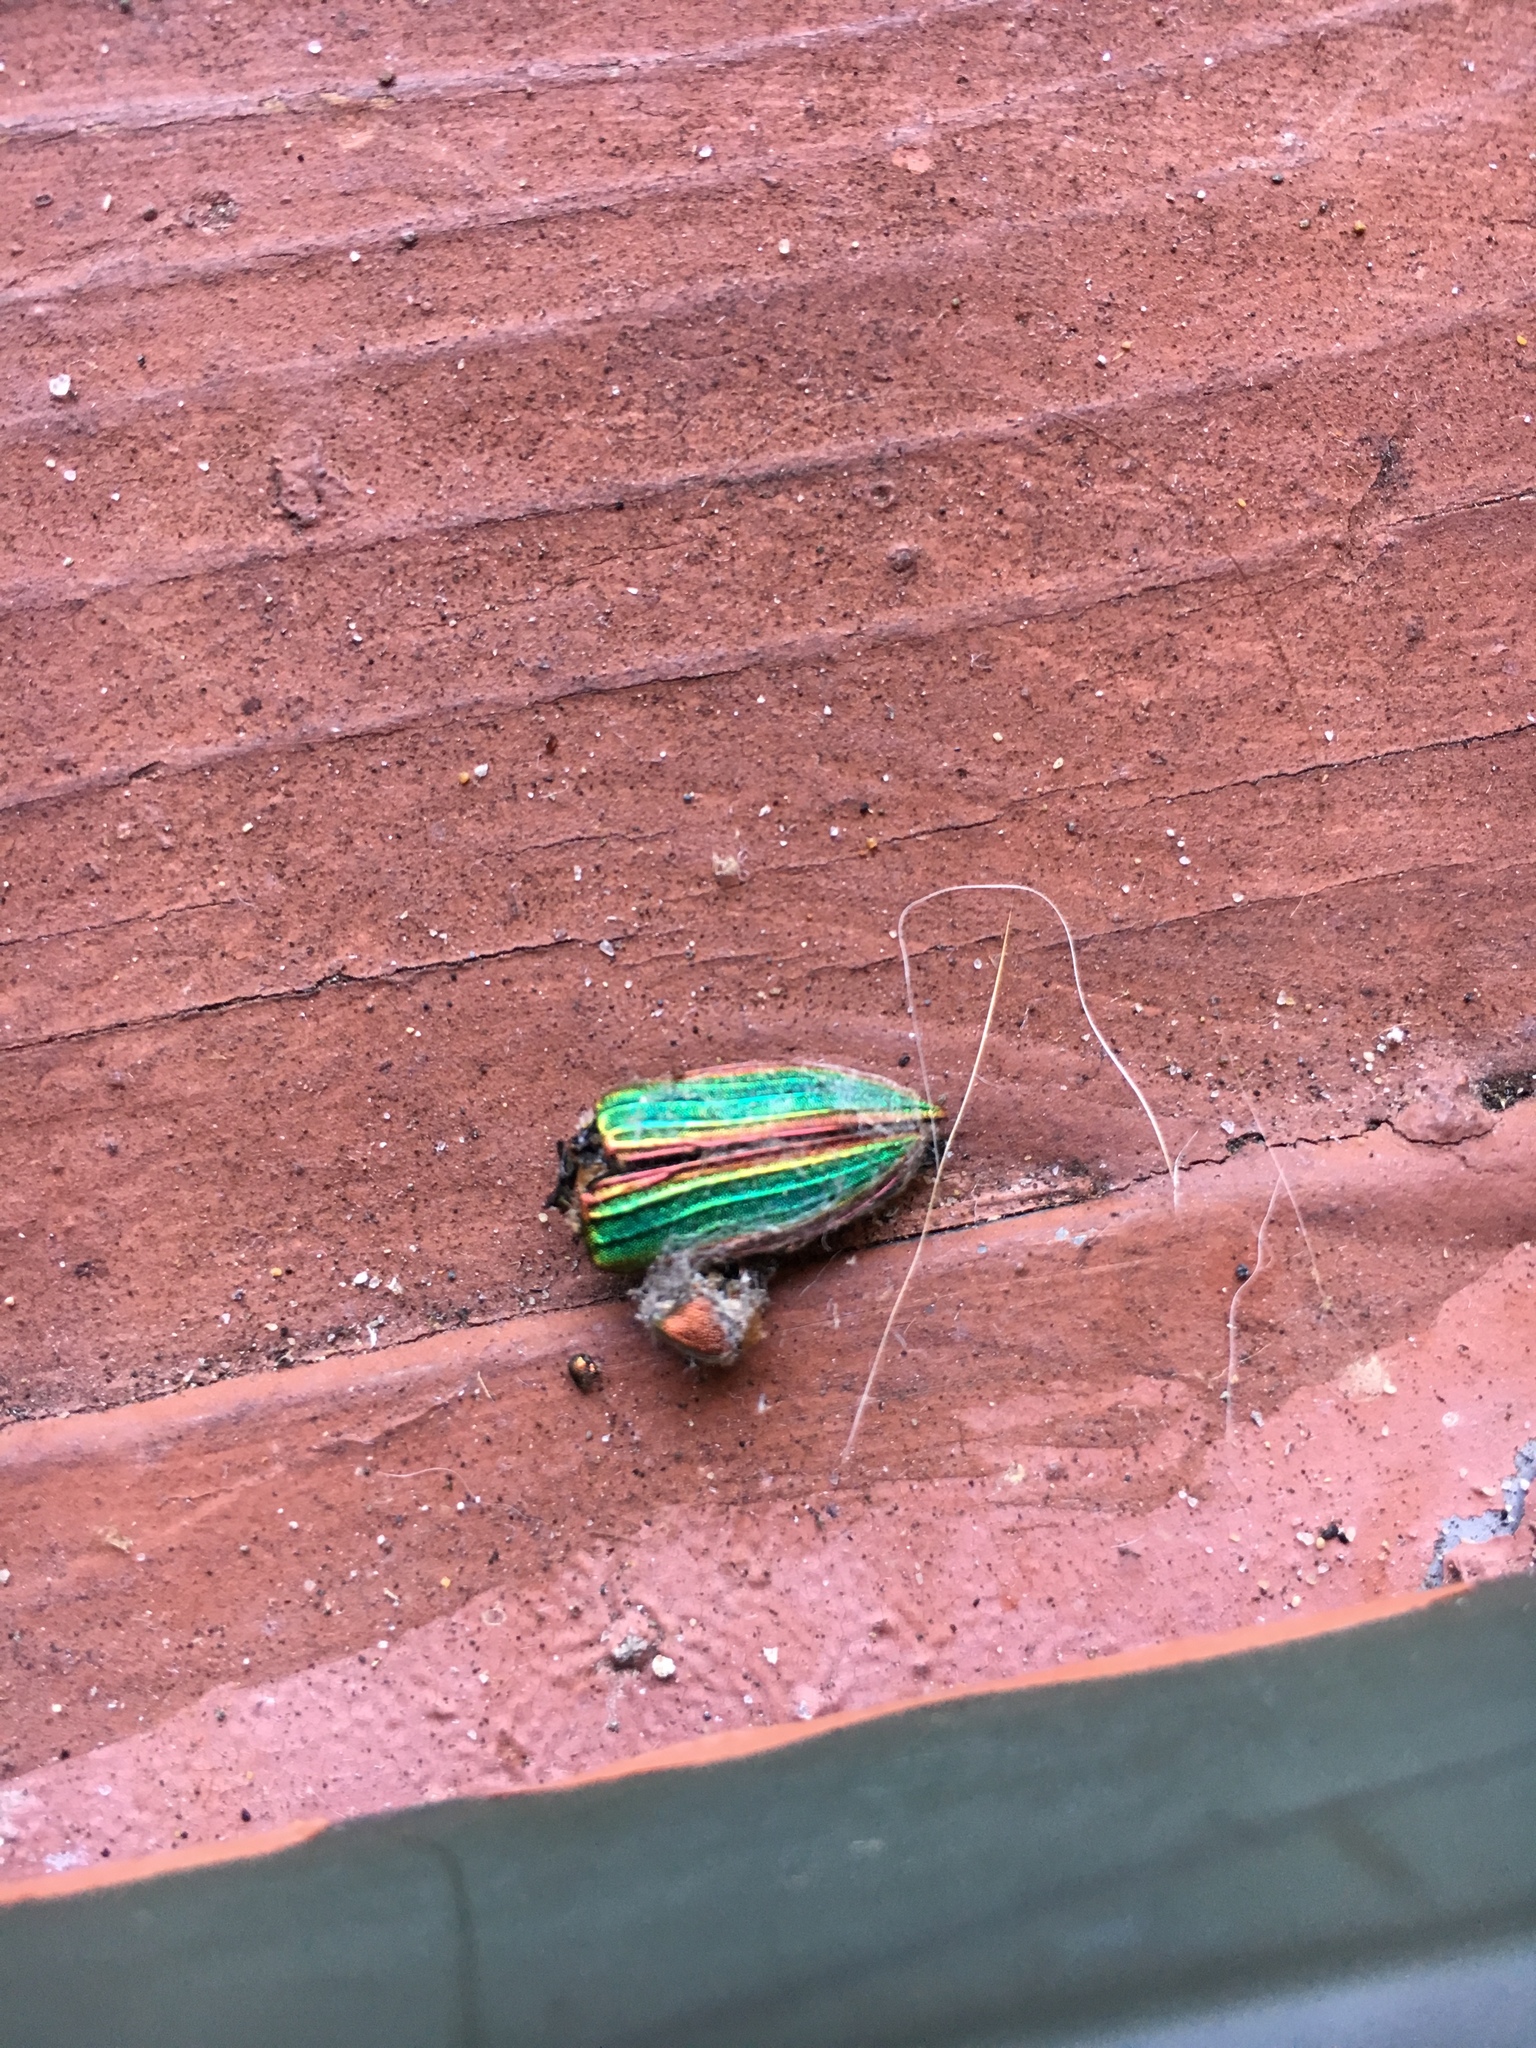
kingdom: Animalia
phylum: Arthropoda
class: Insecta
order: Coleoptera
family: Buprestidae
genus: Buprestis
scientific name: Buprestis aurulenta
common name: Golden buprestid
